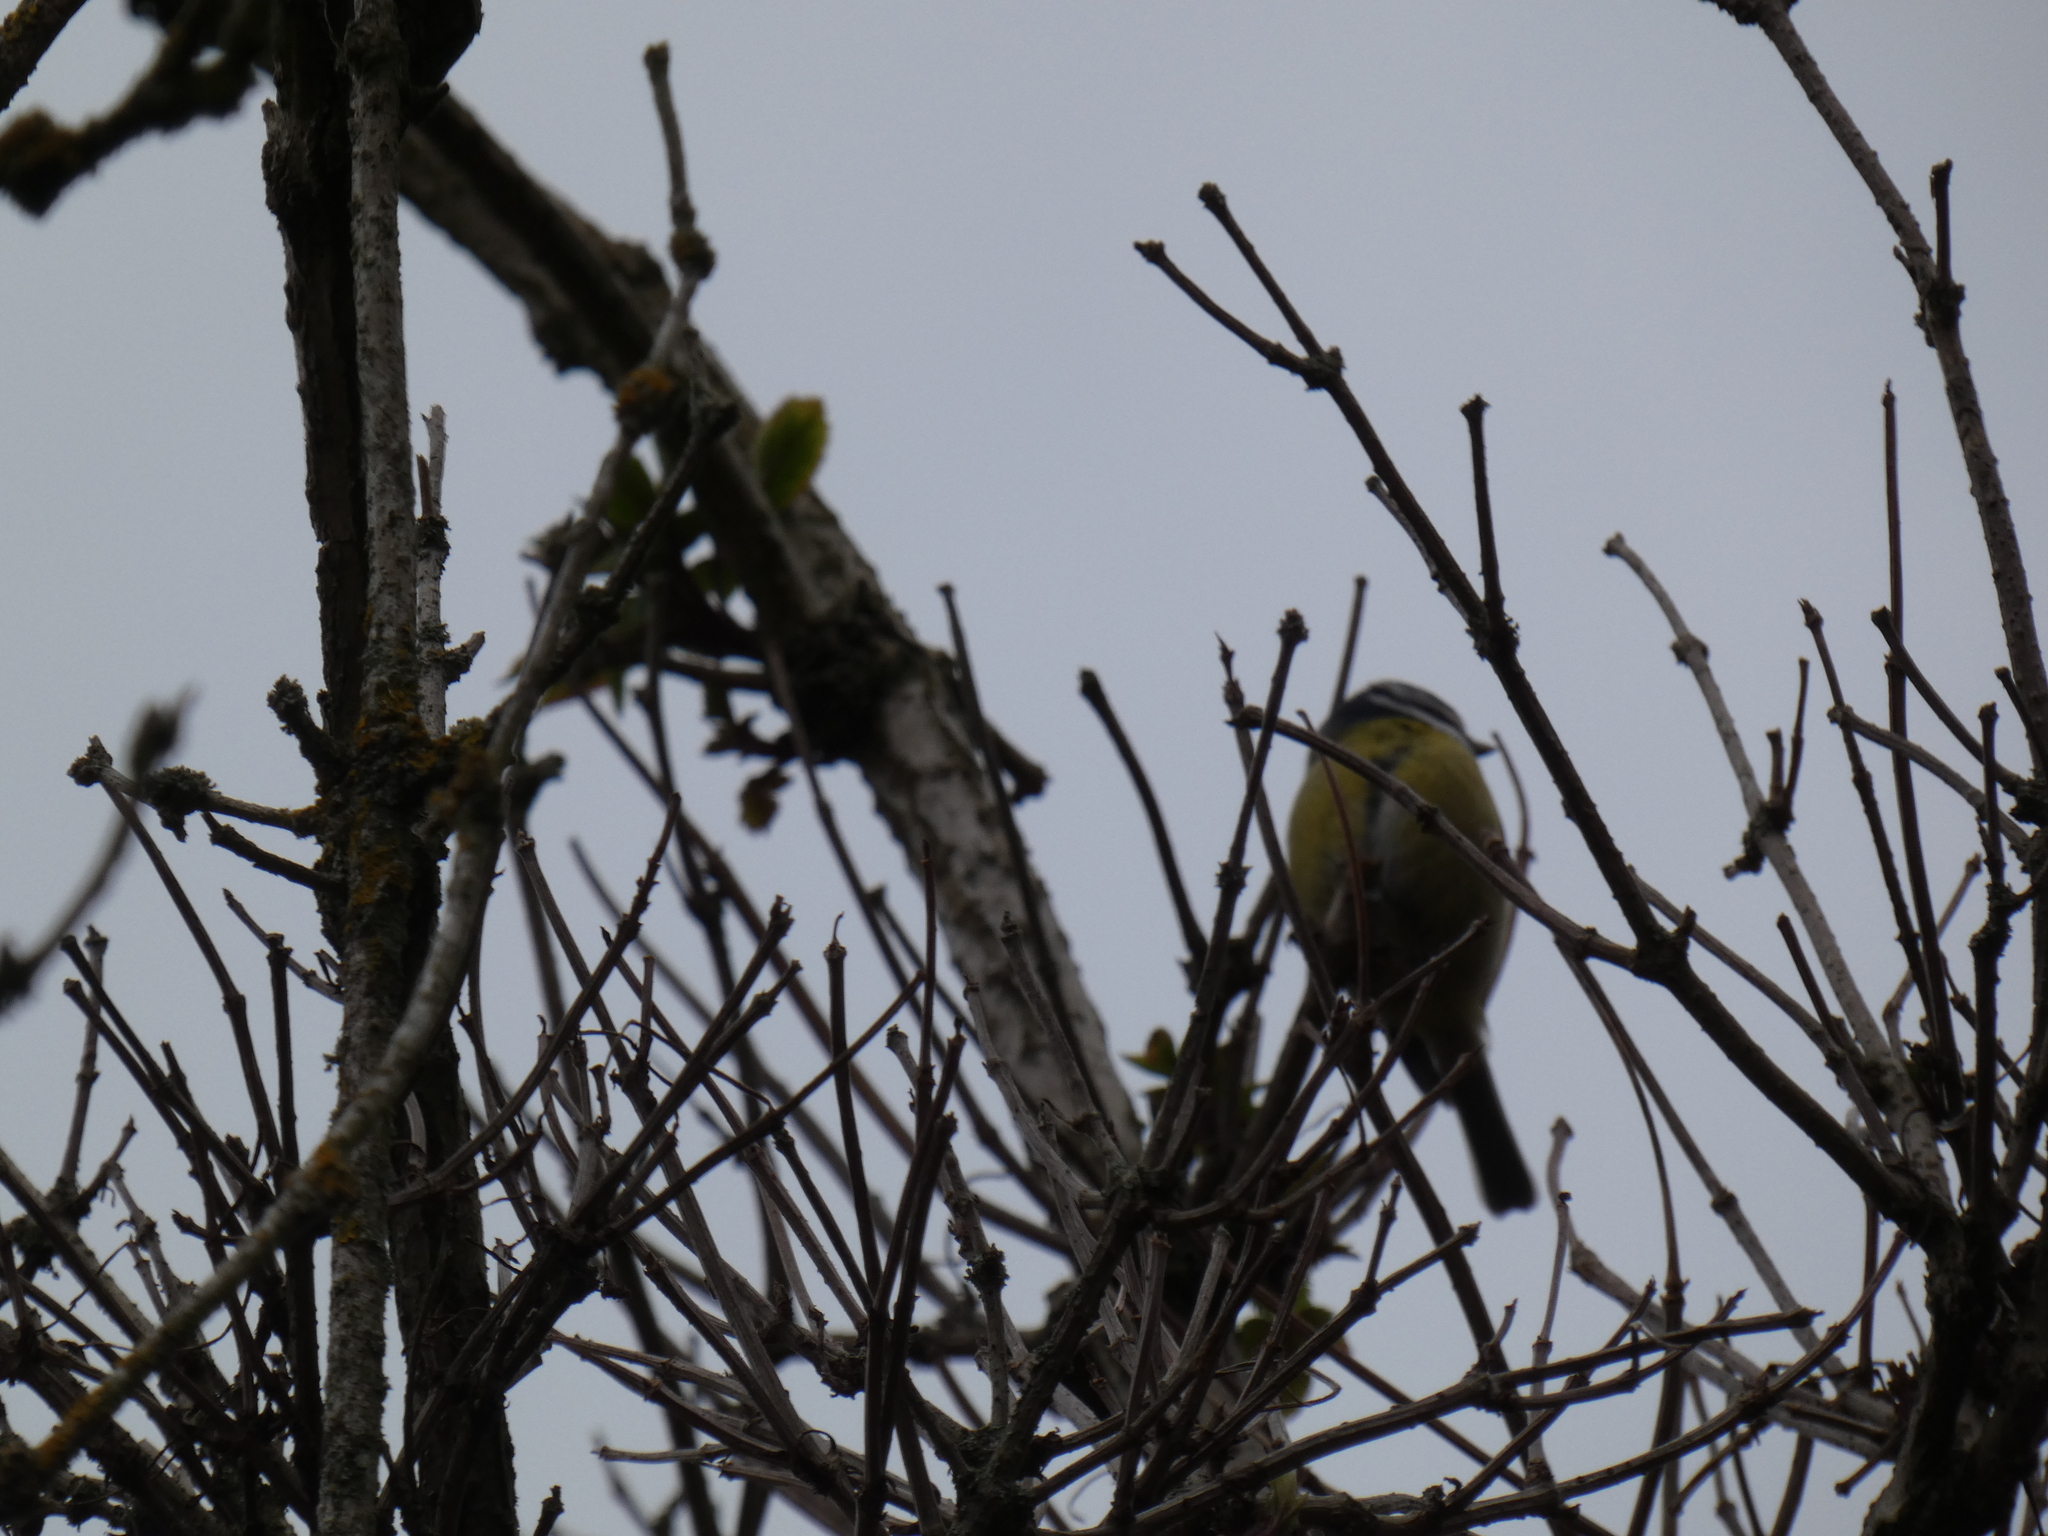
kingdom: Animalia
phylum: Chordata
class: Aves
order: Passeriformes
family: Paridae
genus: Cyanistes
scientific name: Cyanistes caeruleus
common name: Eurasian blue tit
